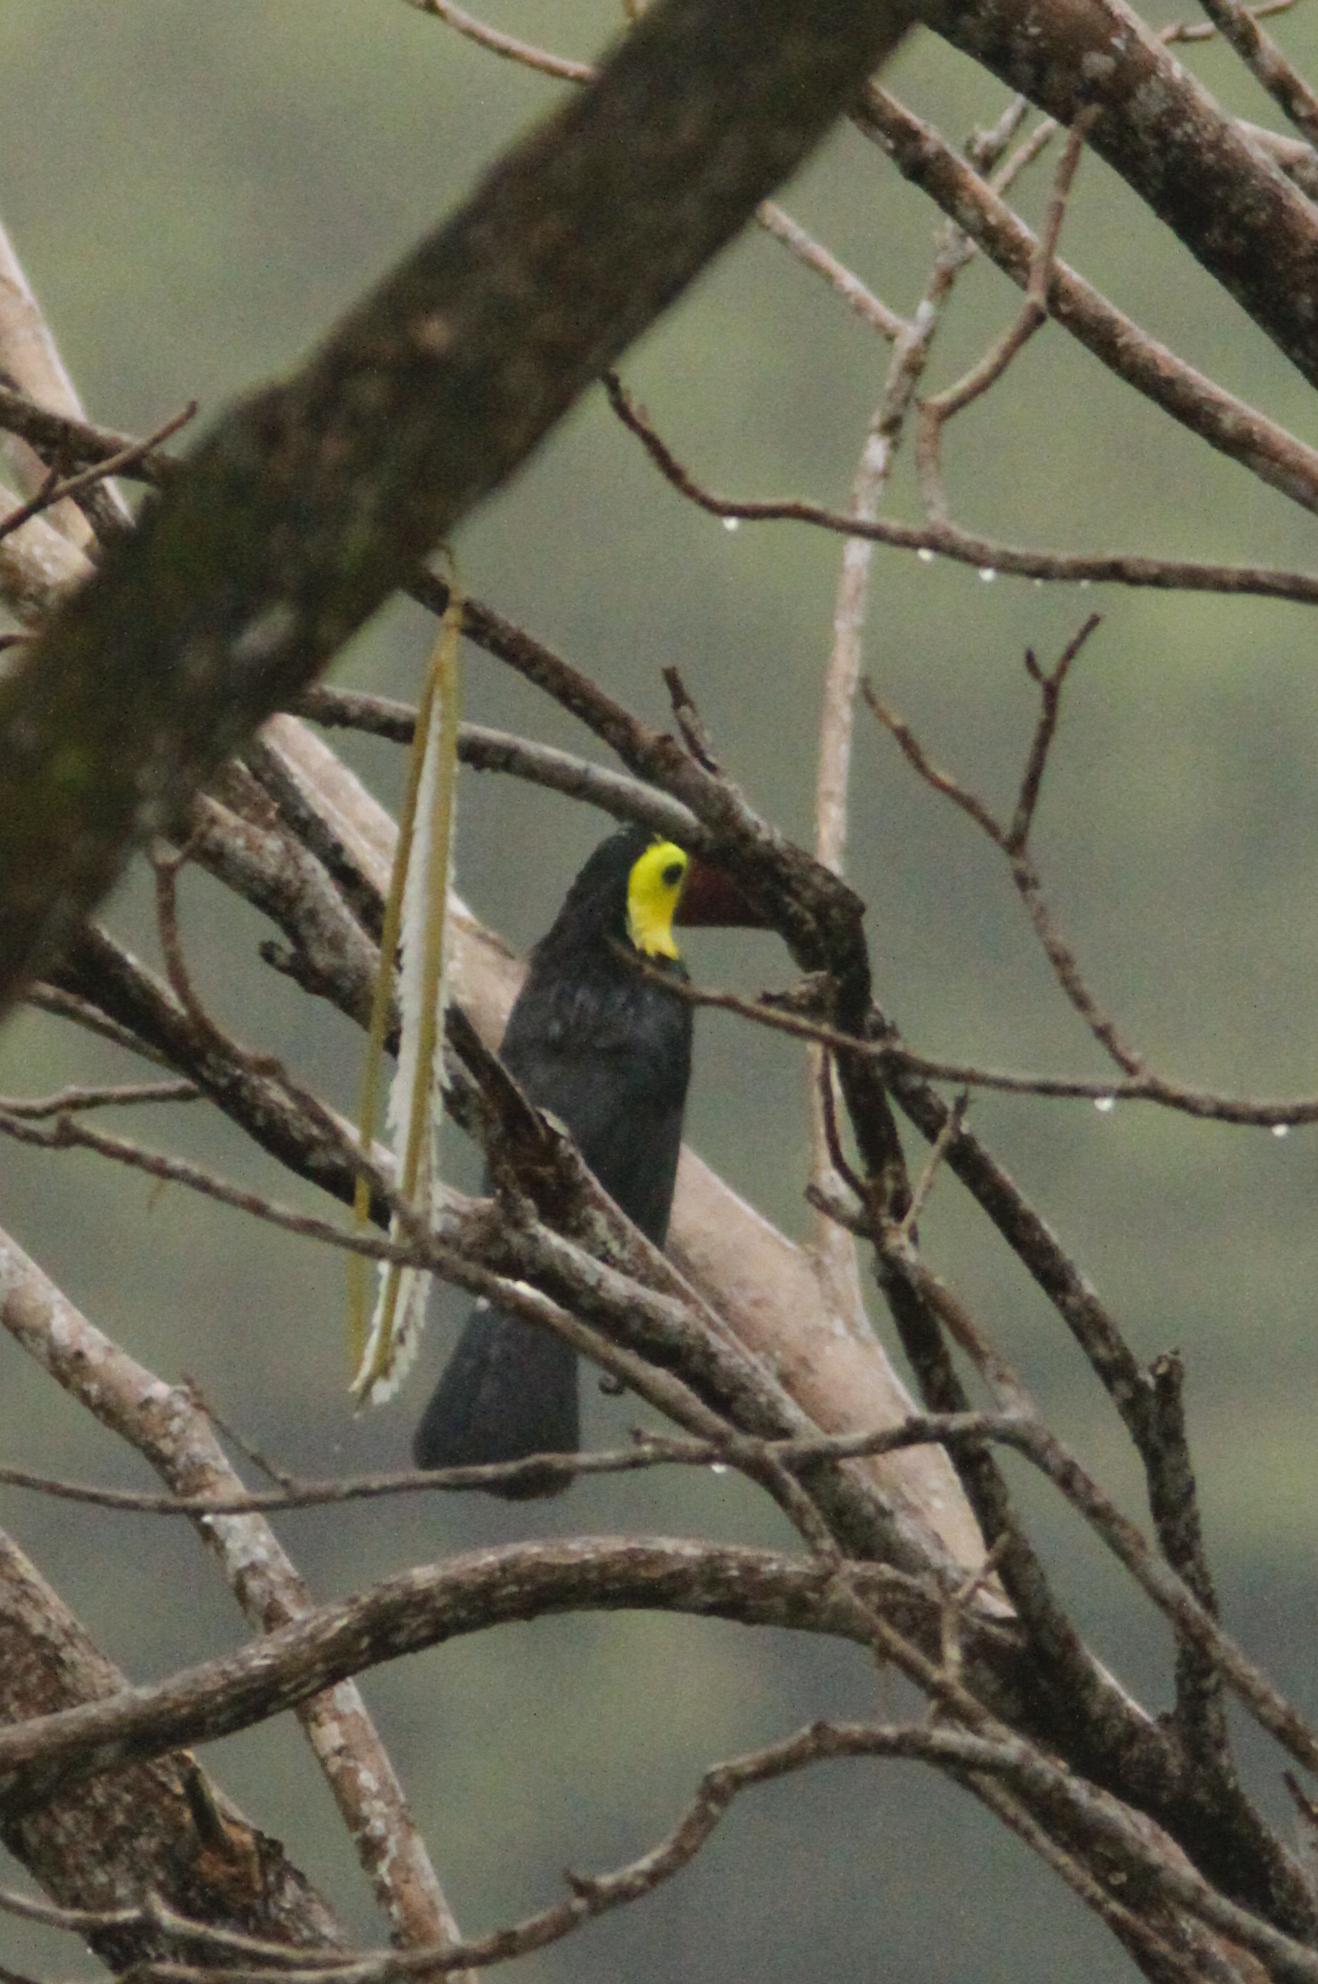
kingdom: Animalia
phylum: Chordata
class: Aves
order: Piciformes
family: Ramphastidae
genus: Ramphastos
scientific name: Ramphastos ambiguus
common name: Yellow-throated toucan
